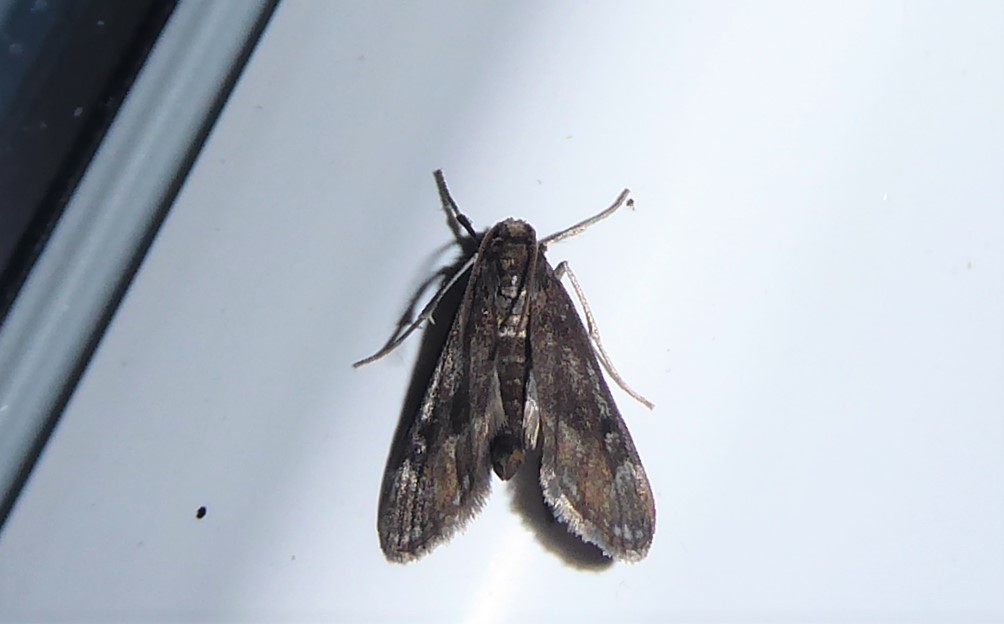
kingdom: Animalia
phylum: Arthropoda
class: Insecta
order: Lepidoptera
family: Crambidae
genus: Hygraula
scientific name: Hygraula nitens
